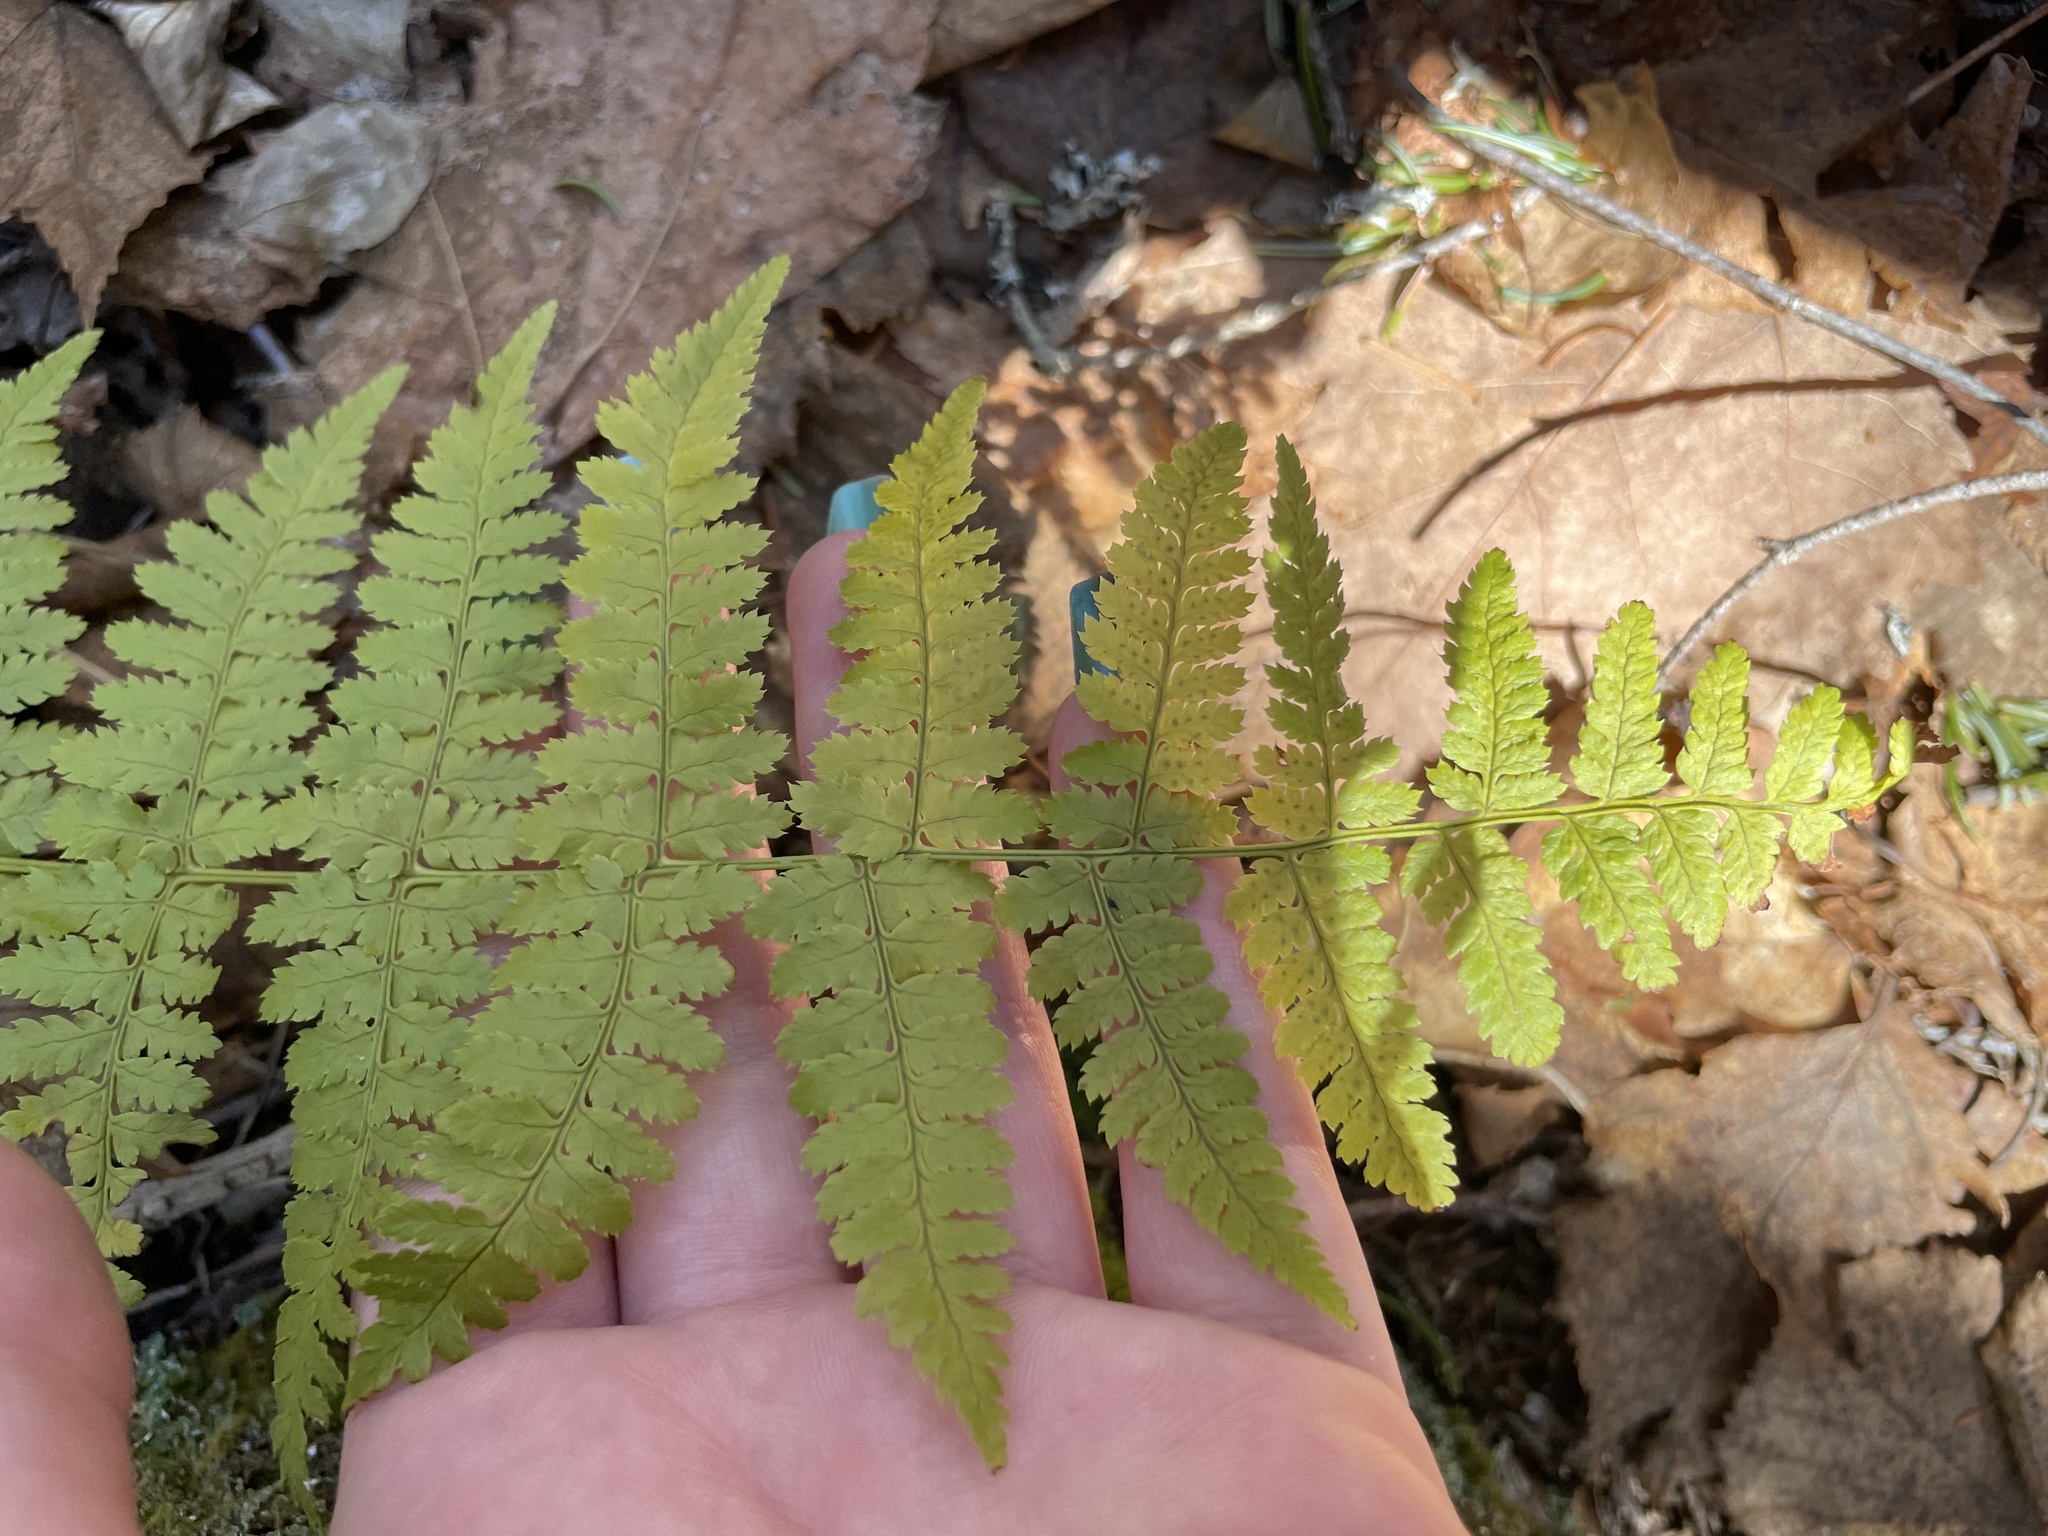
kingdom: Plantae
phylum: Tracheophyta
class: Polypodiopsida
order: Polypodiales
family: Dryopteridaceae
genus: Dryopteris
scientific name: Dryopteris intermedia
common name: Evergreen wood fern
